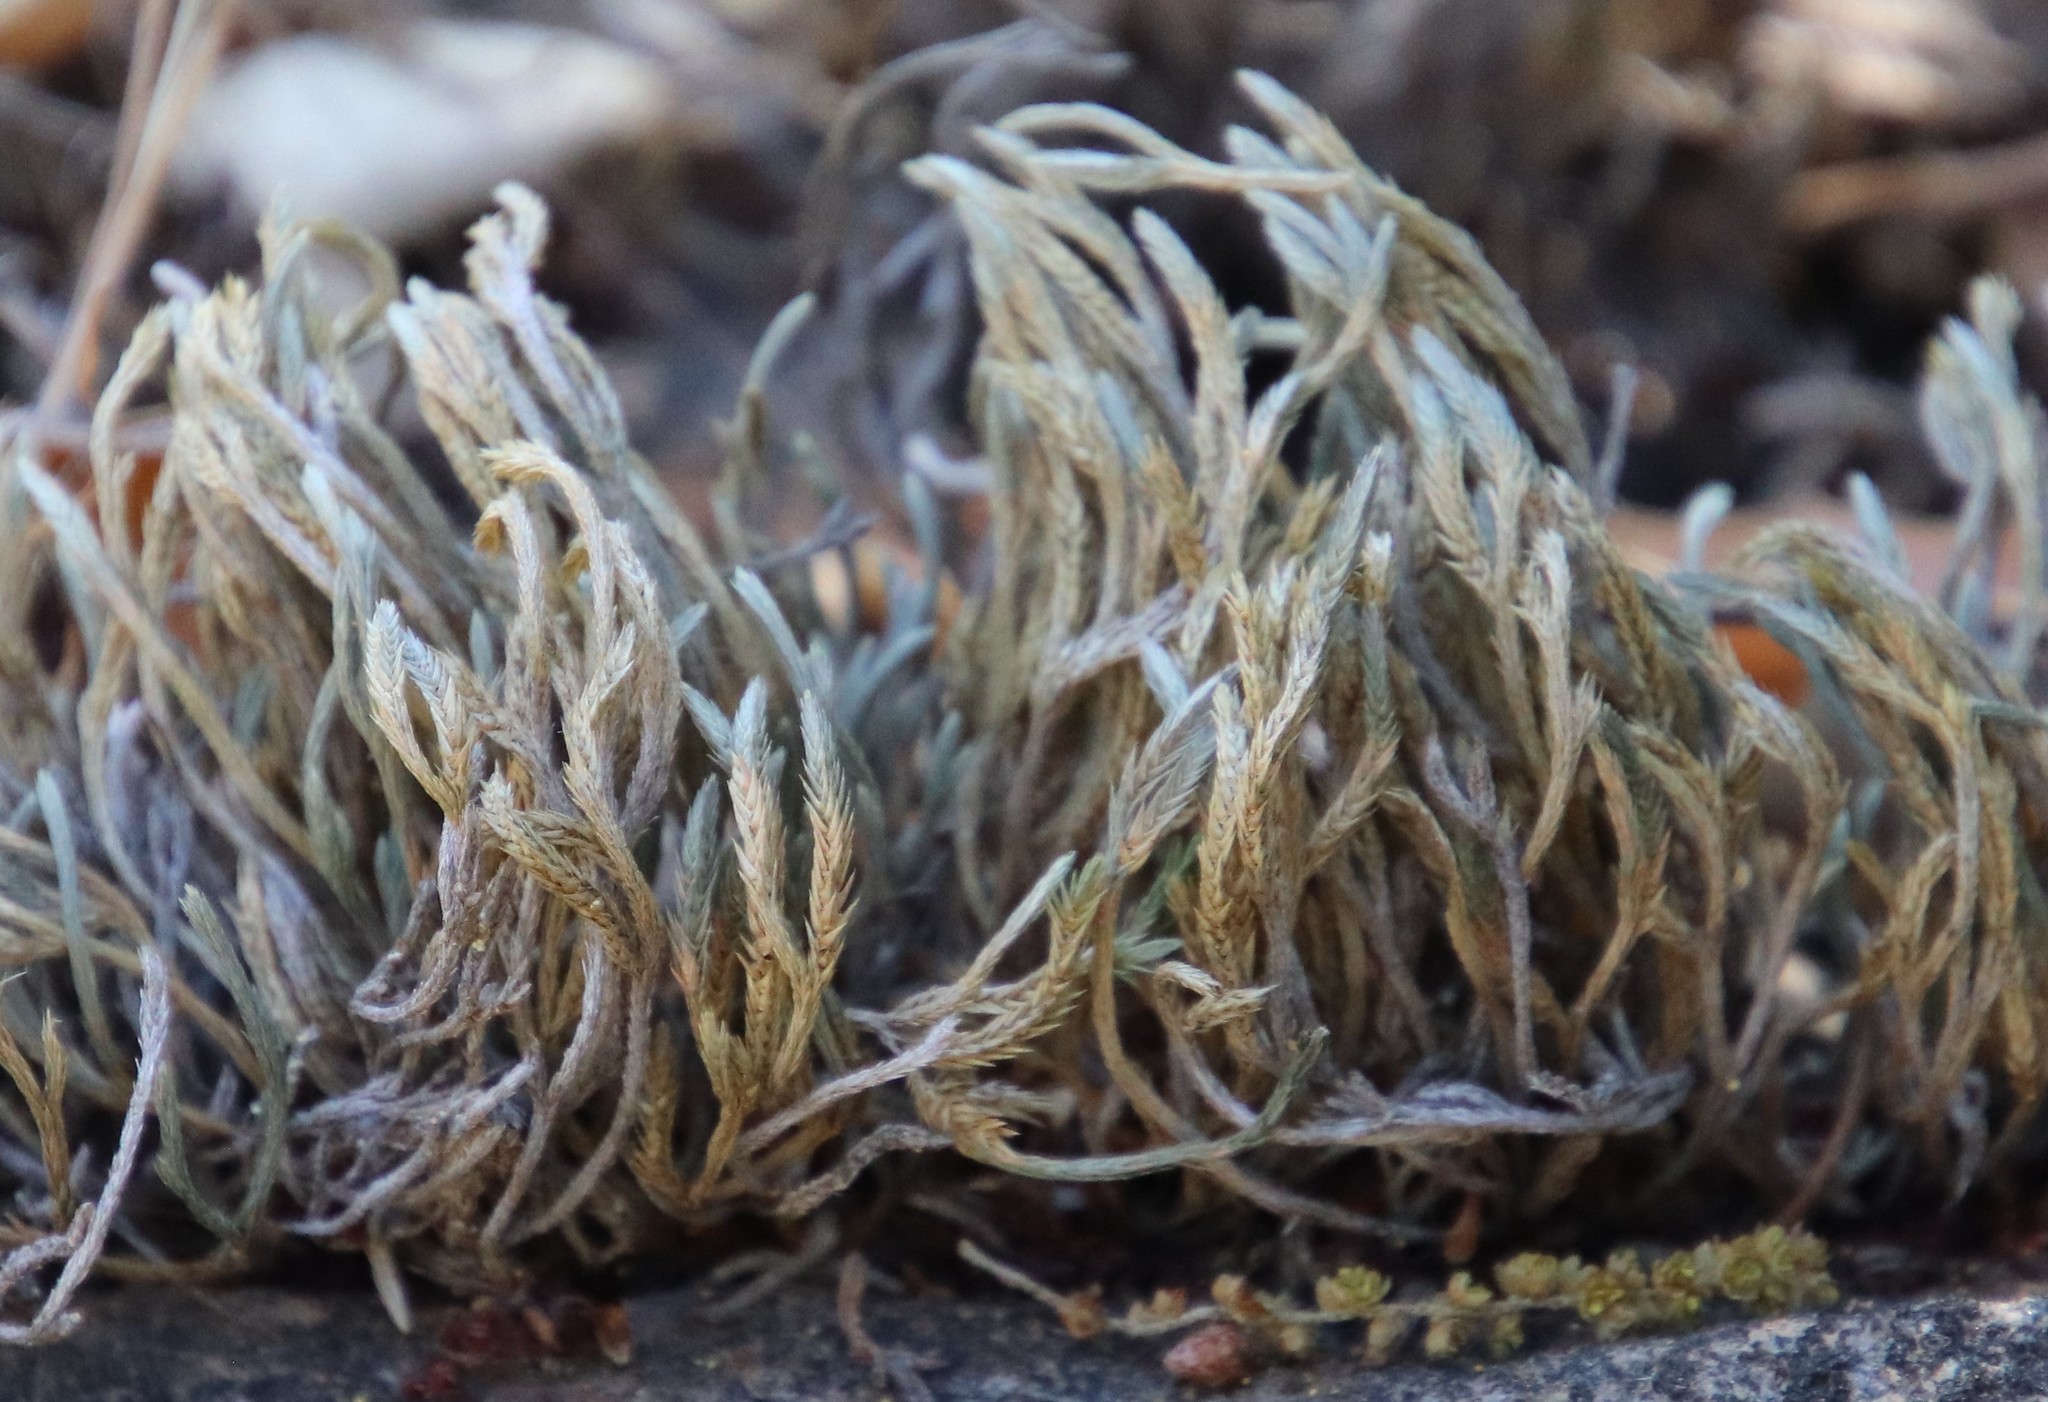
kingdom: Plantae
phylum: Tracheophyta
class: Lycopodiopsida
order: Selaginellales
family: Selaginellaceae
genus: Selaginella
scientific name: Selaginella bigelovii
